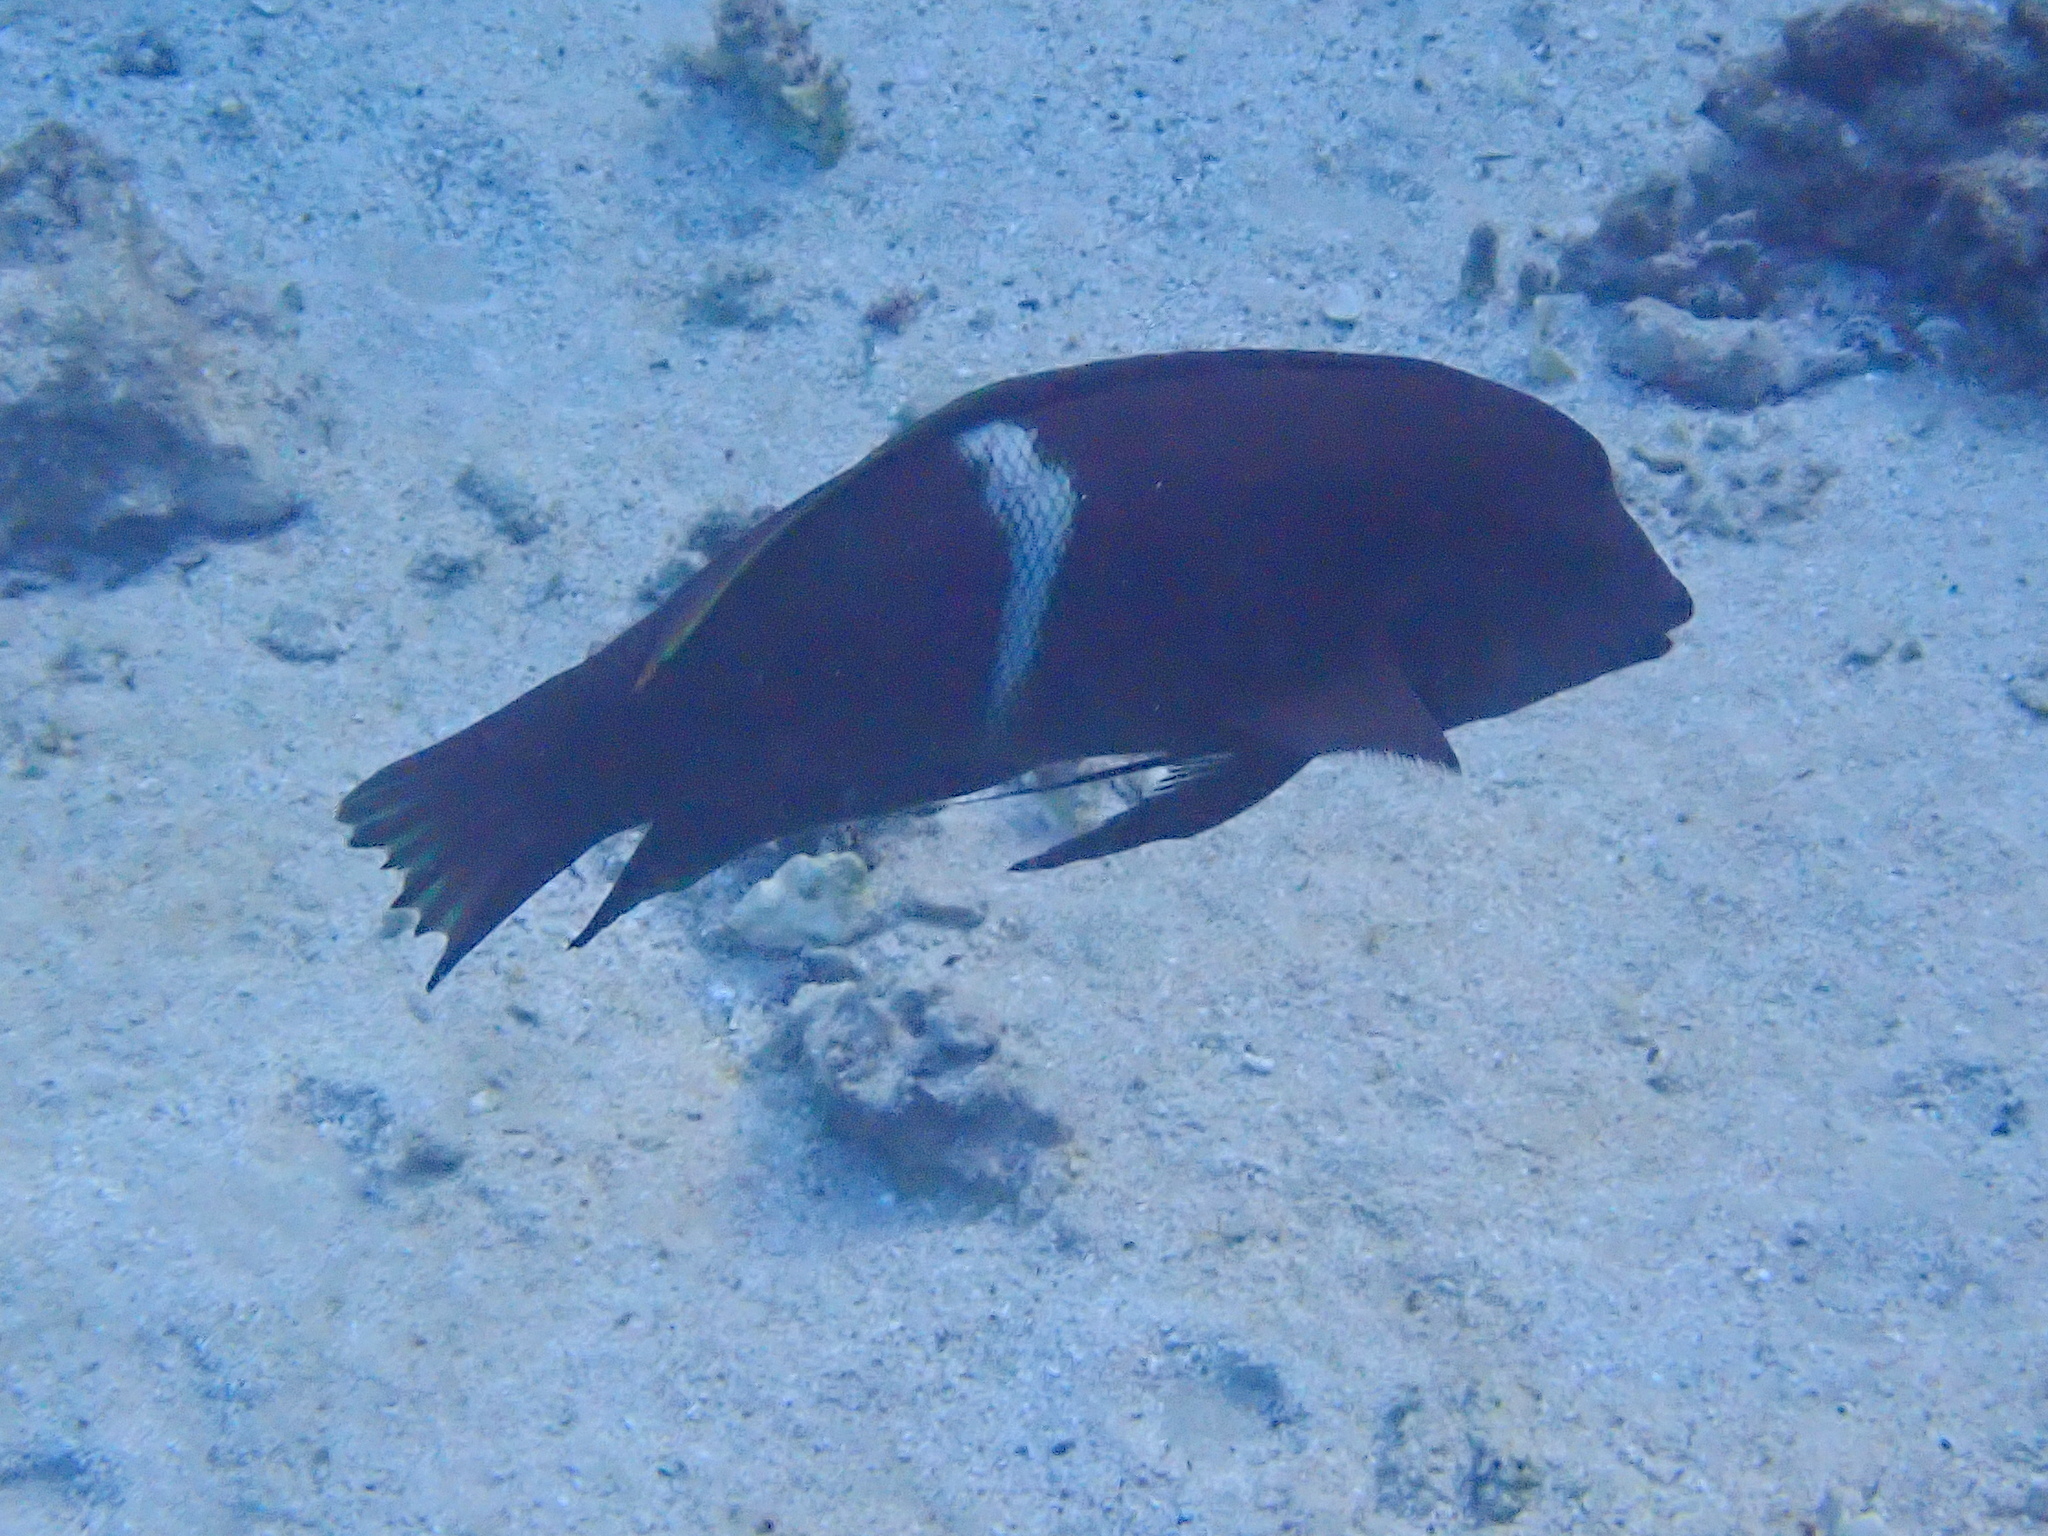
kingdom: Animalia
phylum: Chordata
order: Perciformes
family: Labridae
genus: Coris
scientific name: Coris aygula
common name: Clown coris
